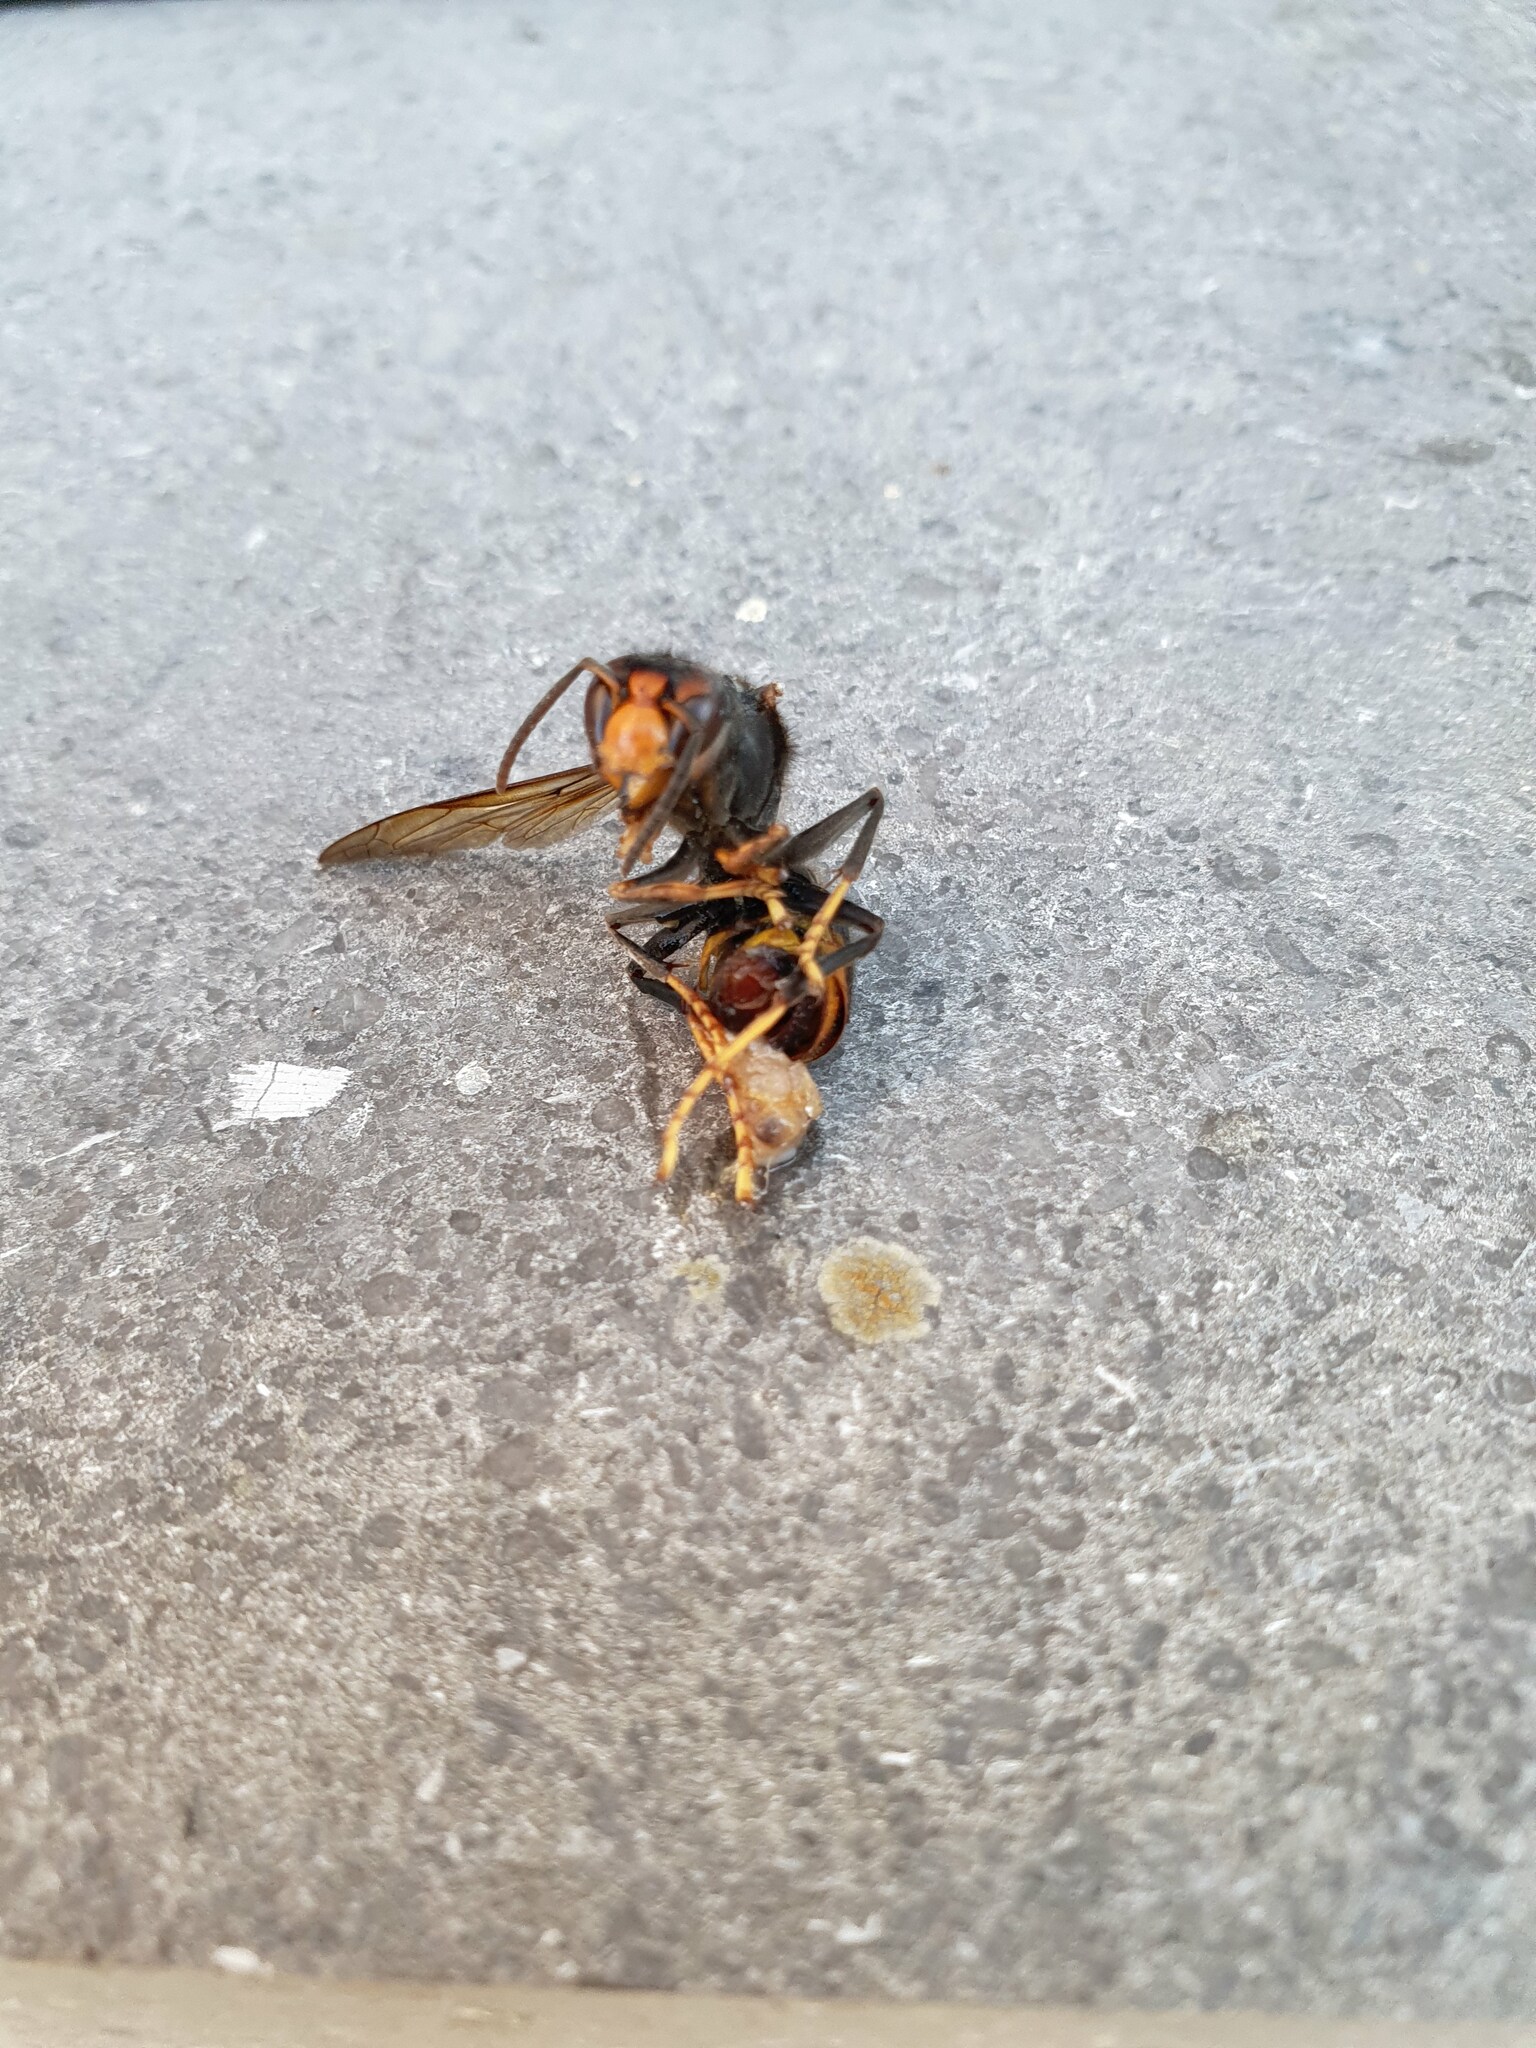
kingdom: Animalia
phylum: Arthropoda
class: Insecta
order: Hymenoptera
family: Vespidae
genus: Vespa
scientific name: Vespa velutina
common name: Asian hornet
